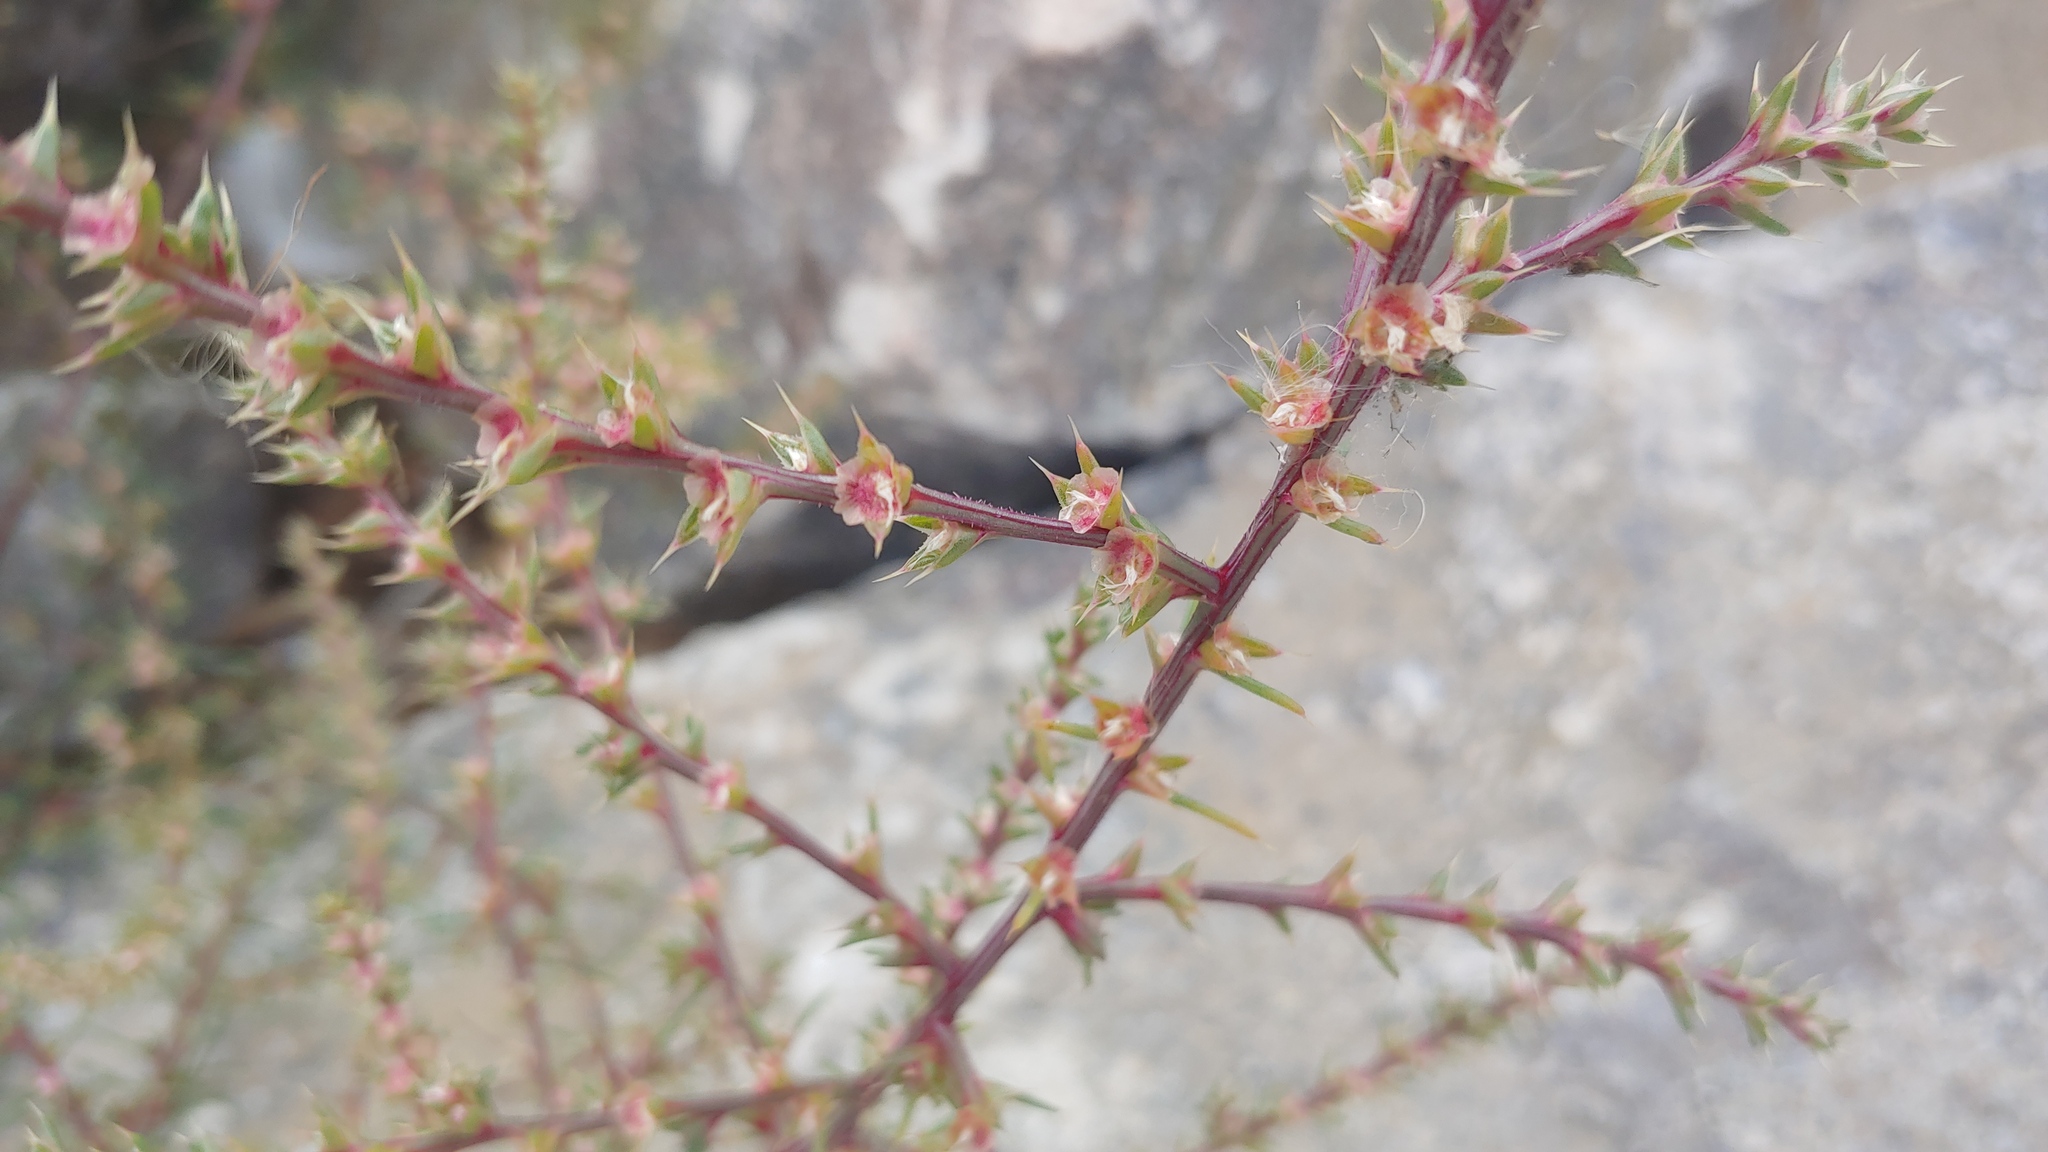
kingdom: Plantae
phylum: Tracheophyta
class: Magnoliopsida
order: Caryophyllales
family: Amaranthaceae
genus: Salsola
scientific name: Salsola tragus
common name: Prickly russian thistle
